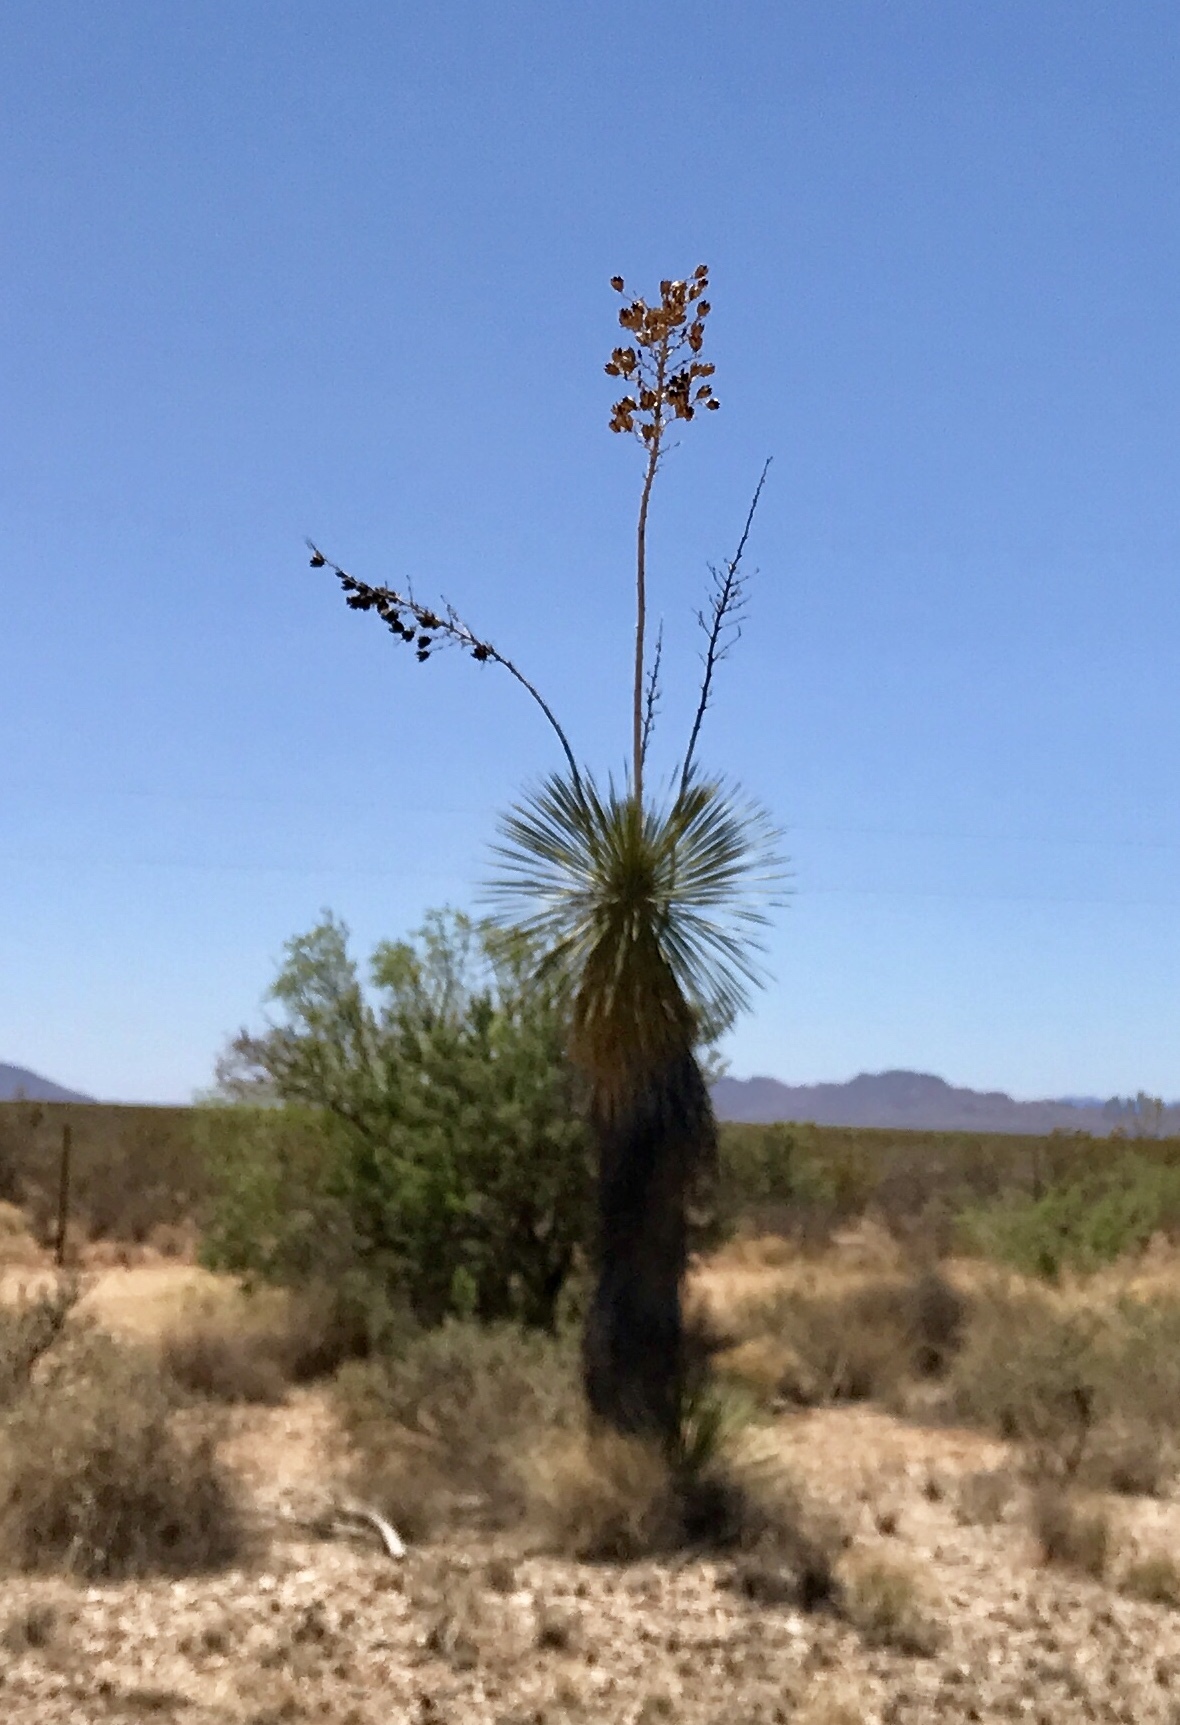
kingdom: Plantae
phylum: Tracheophyta
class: Liliopsida
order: Asparagales
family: Asparagaceae
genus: Yucca
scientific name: Yucca elata
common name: Palmella
